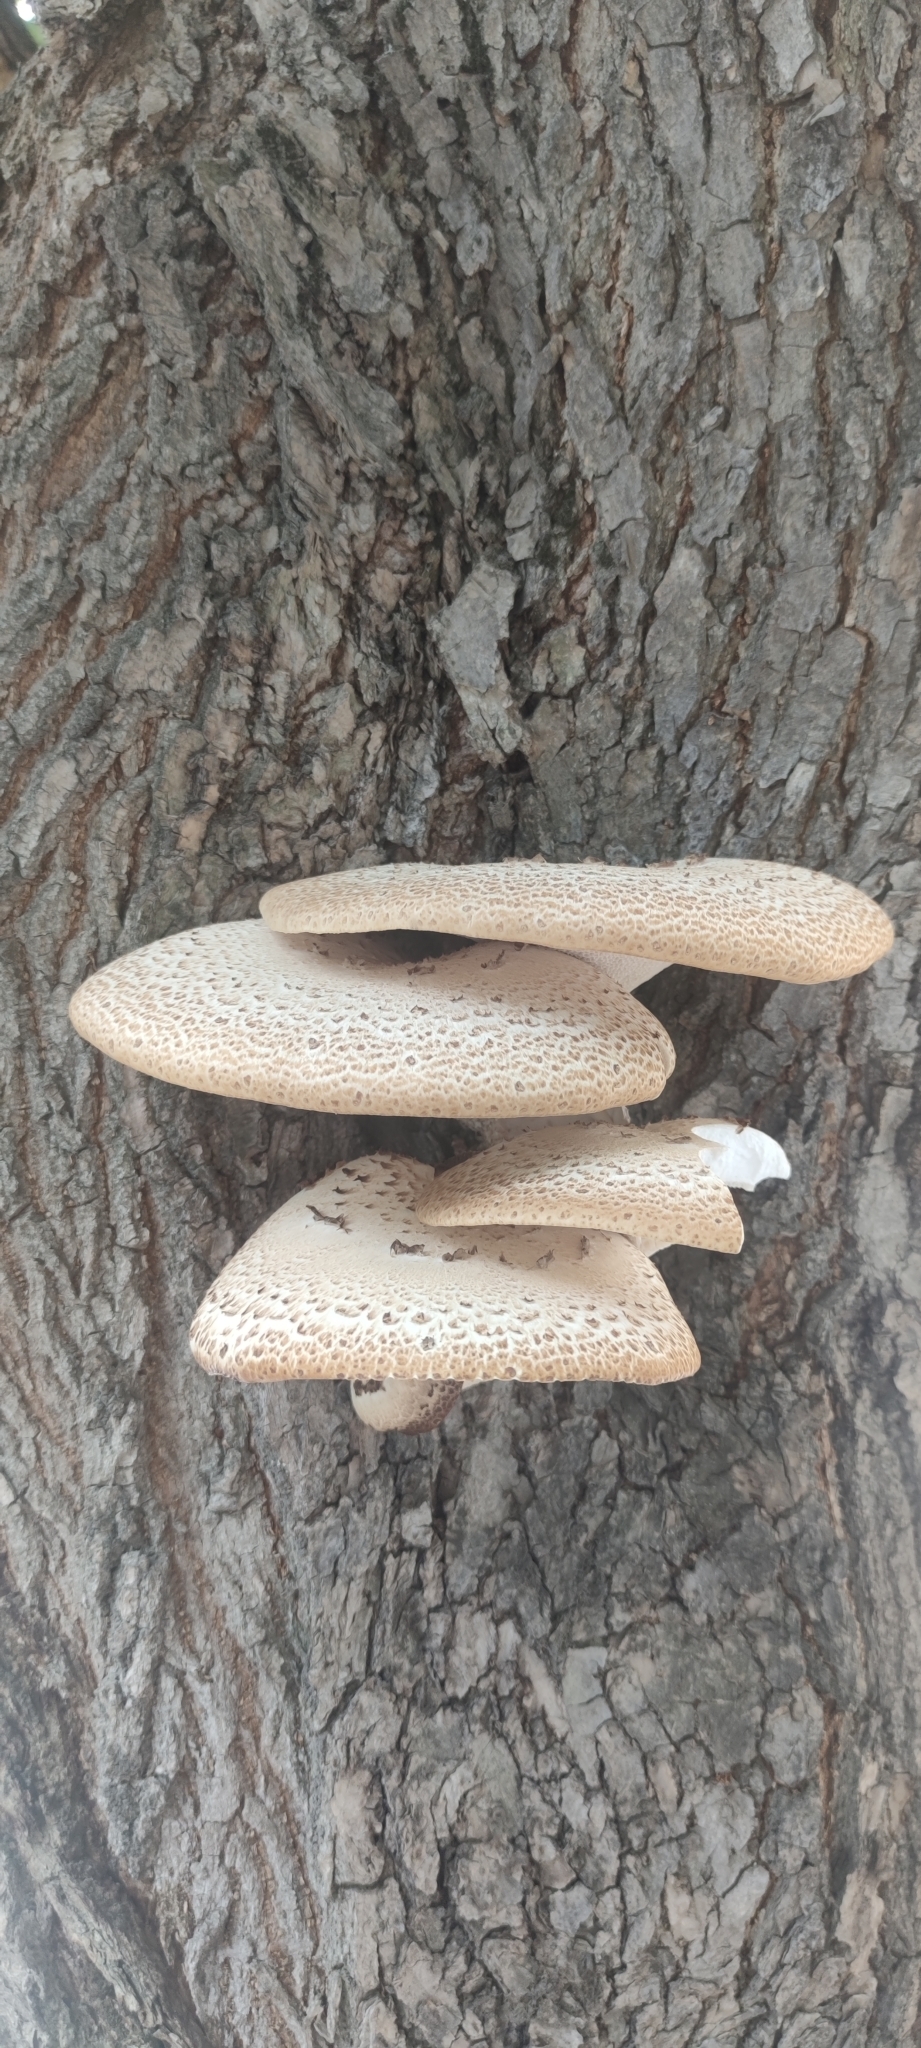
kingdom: Fungi
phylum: Basidiomycota
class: Agaricomycetes
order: Polyporales
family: Polyporaceae
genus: Cerioporus
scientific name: Cerioporus squamosus
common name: Dryad's saddle
